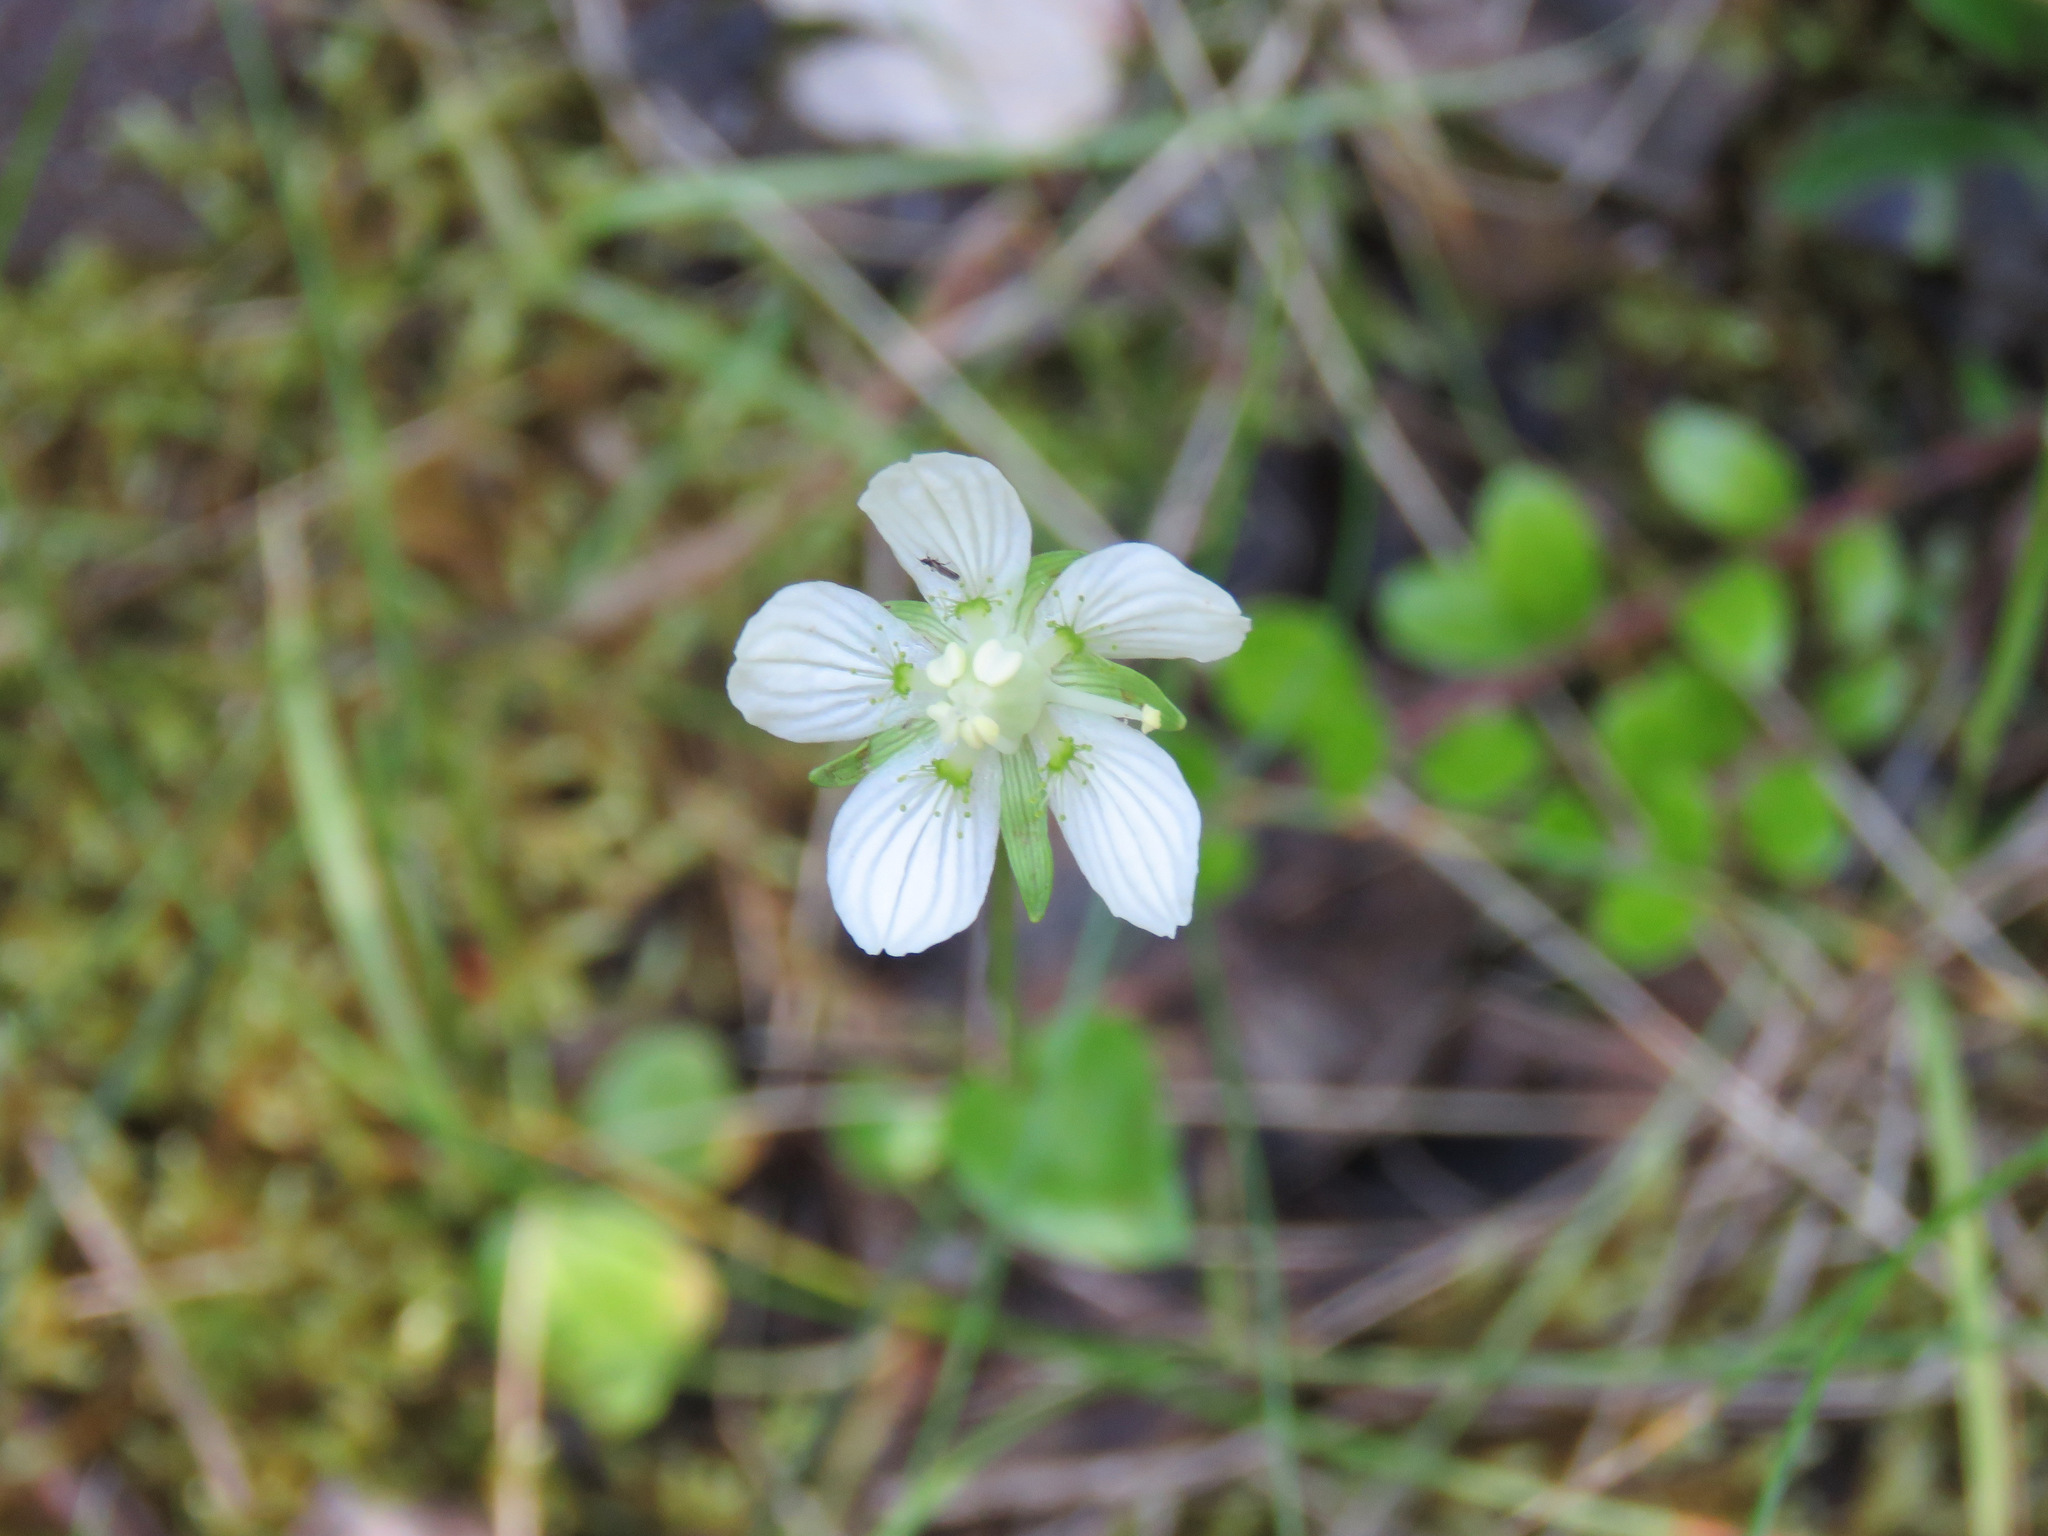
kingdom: Plantae
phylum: Tracheophyta
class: Magnoliopsida
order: Celastrales
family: Parnassiaceae
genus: Parnassia
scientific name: Parnassia palustris
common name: Grass-of-parnassus
